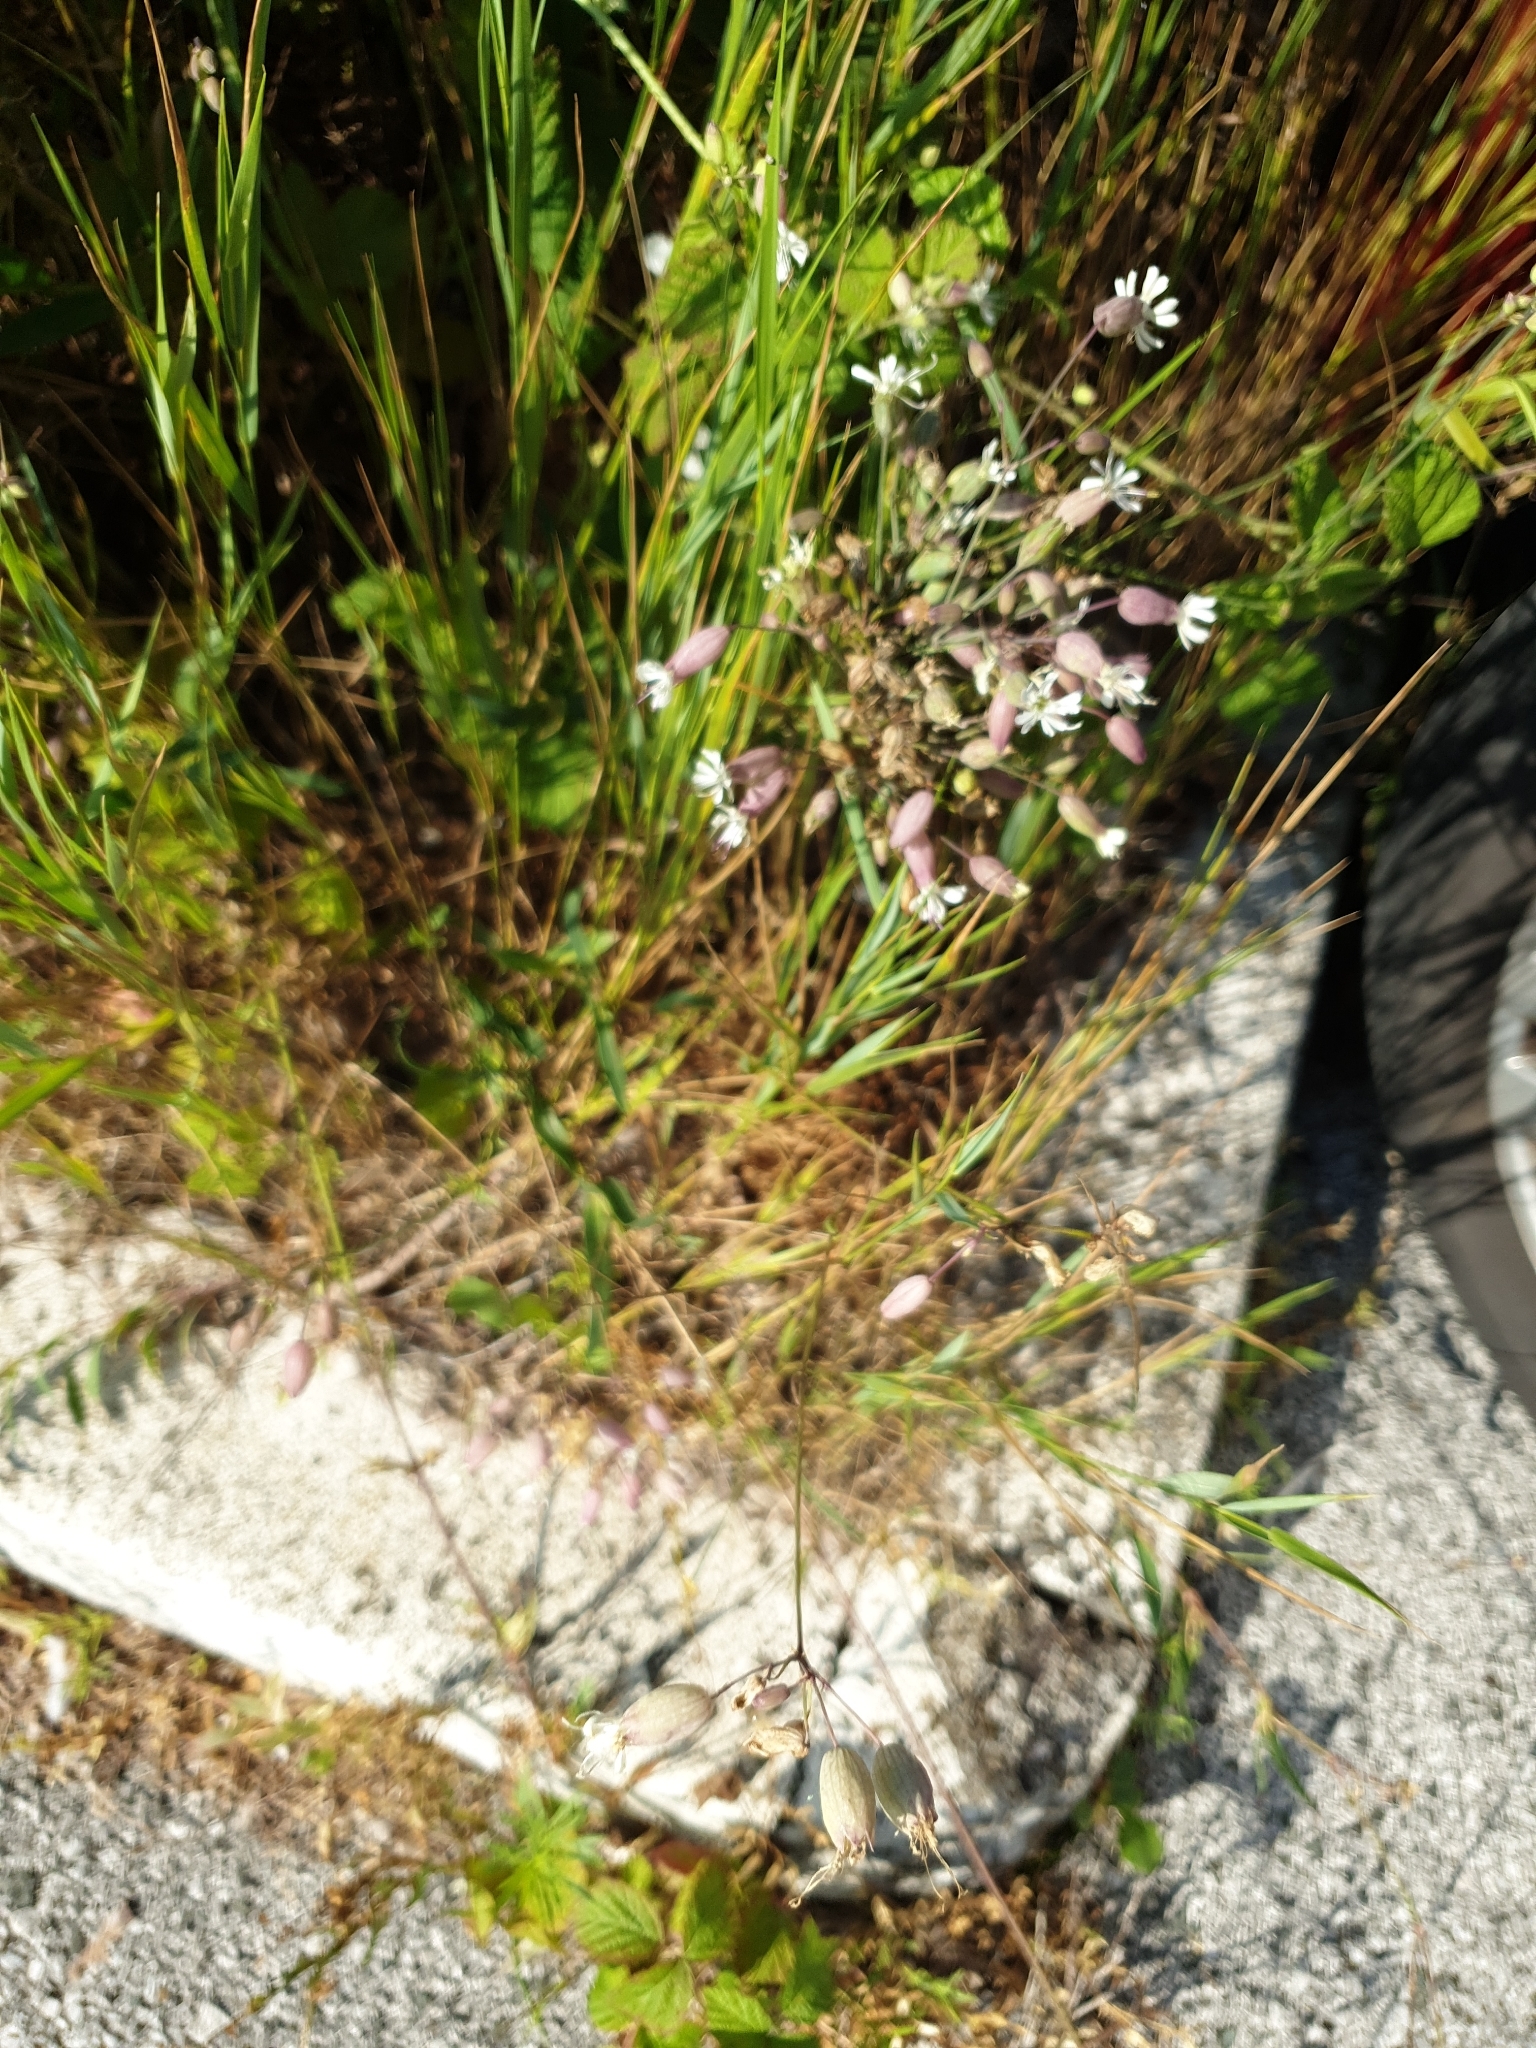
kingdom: Plantae
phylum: Tracheophyta
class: Magnoliopsida
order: Caryophyllales
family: Caryophyllaceae
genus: Silene
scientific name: Silene vulgaris
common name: Bladder campion
